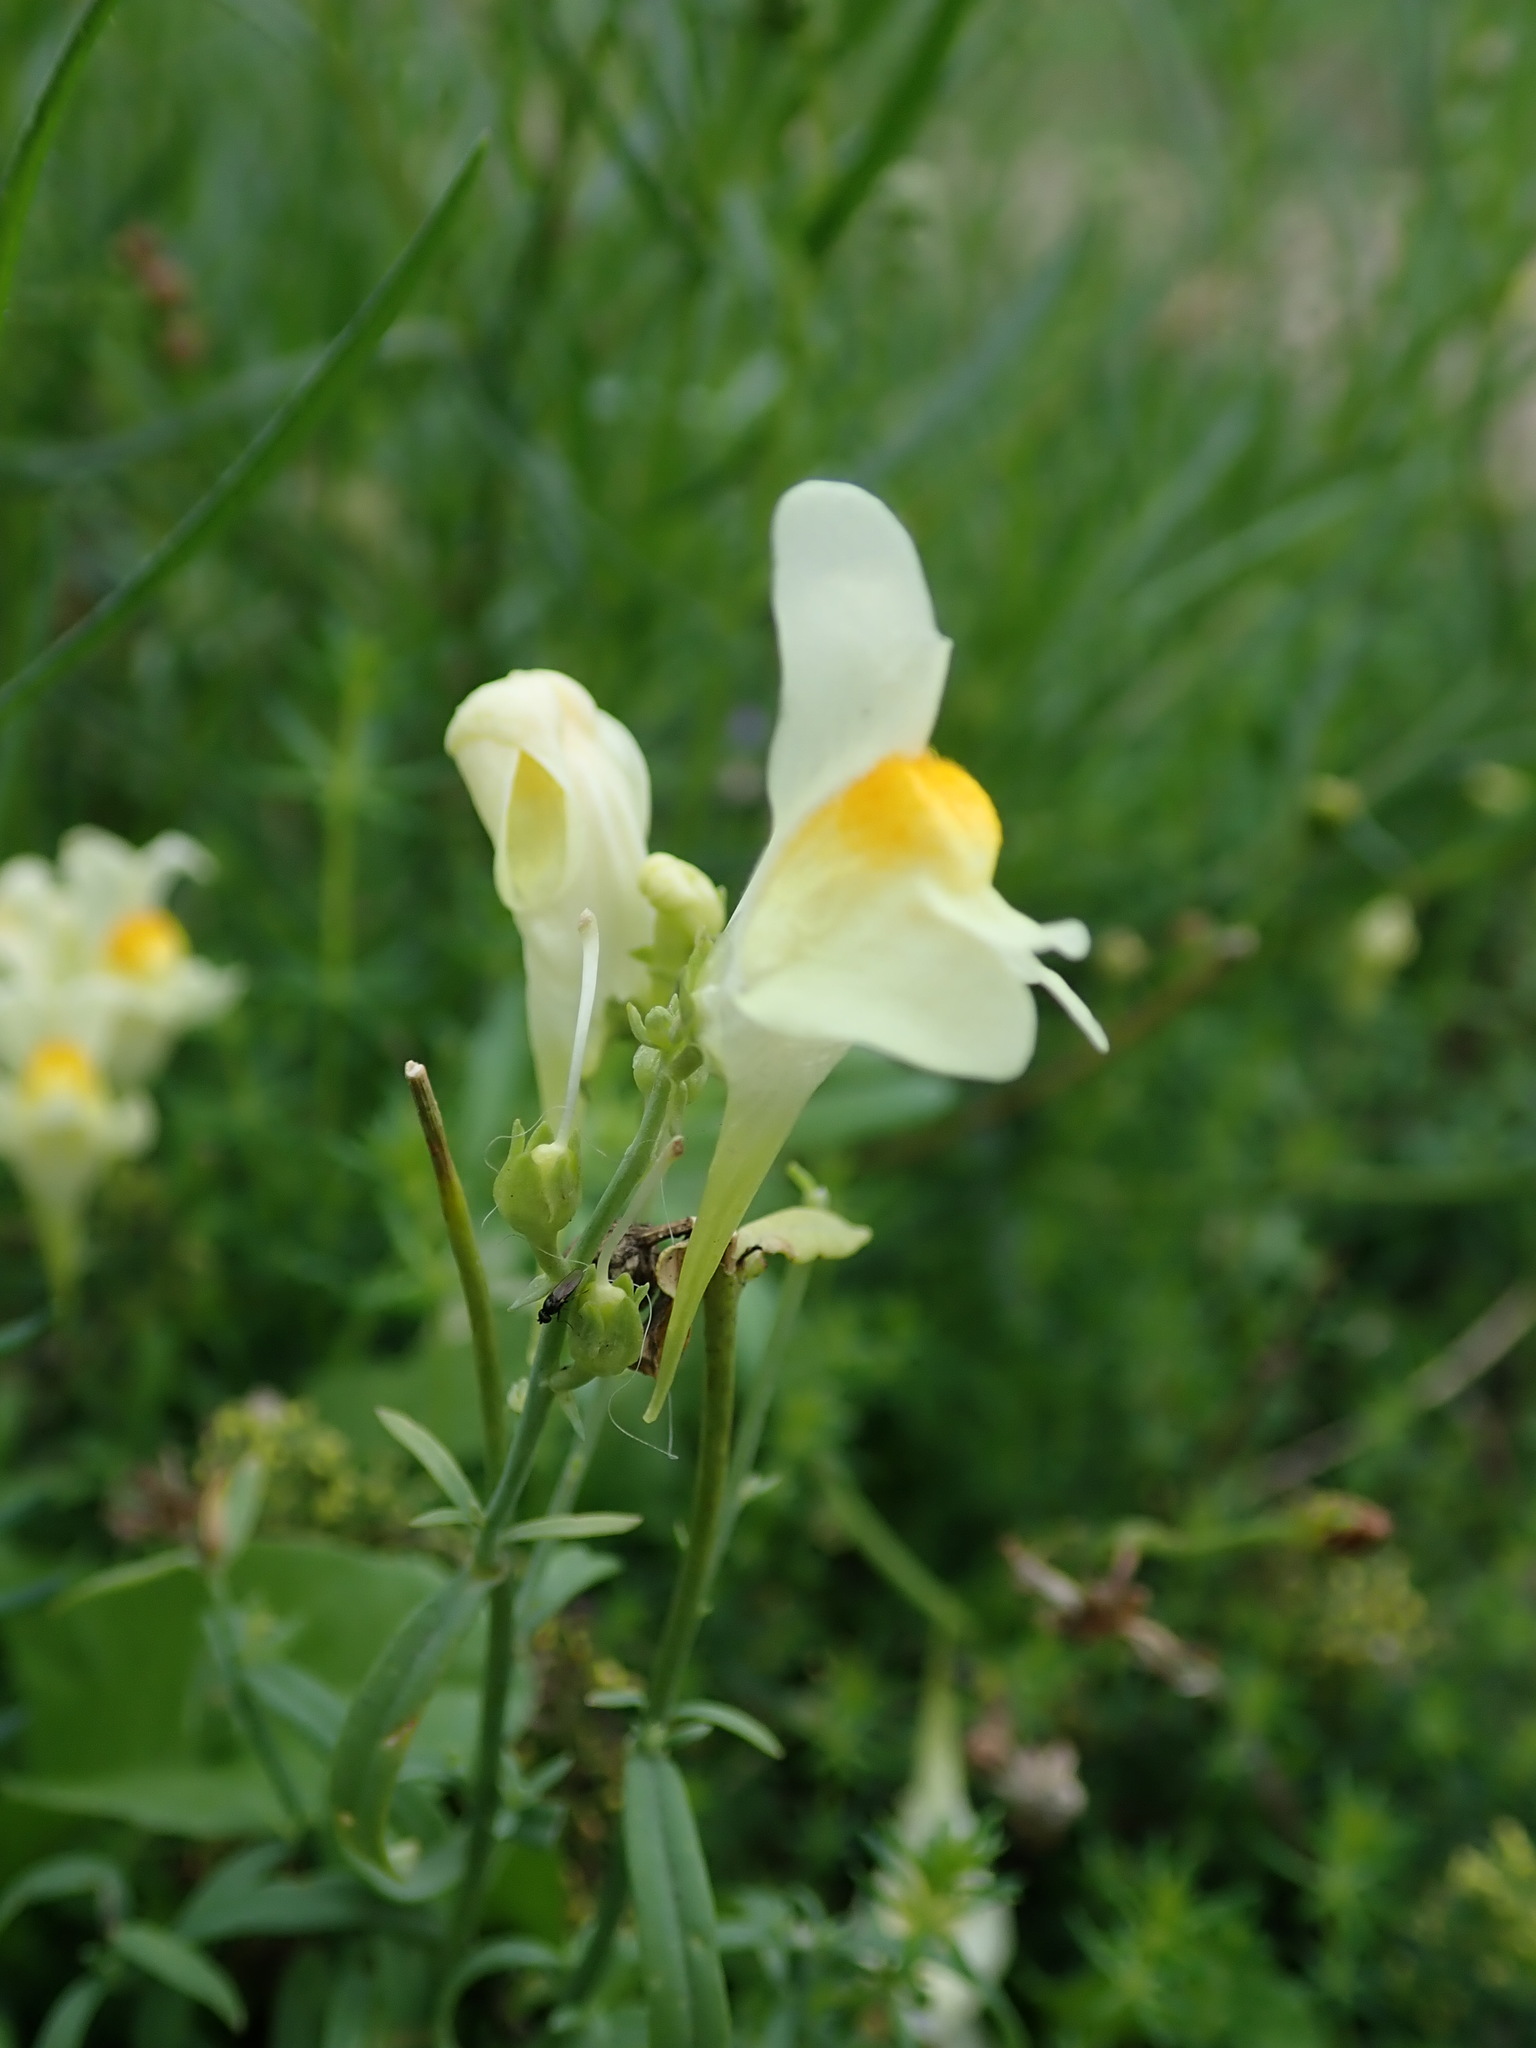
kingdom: Plantae
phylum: Tracheophyta
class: Magnoliopsida
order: Lamiales
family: Plantaginaceae
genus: Linaria
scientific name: Linaria vulgaris
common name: Butter and eggs
